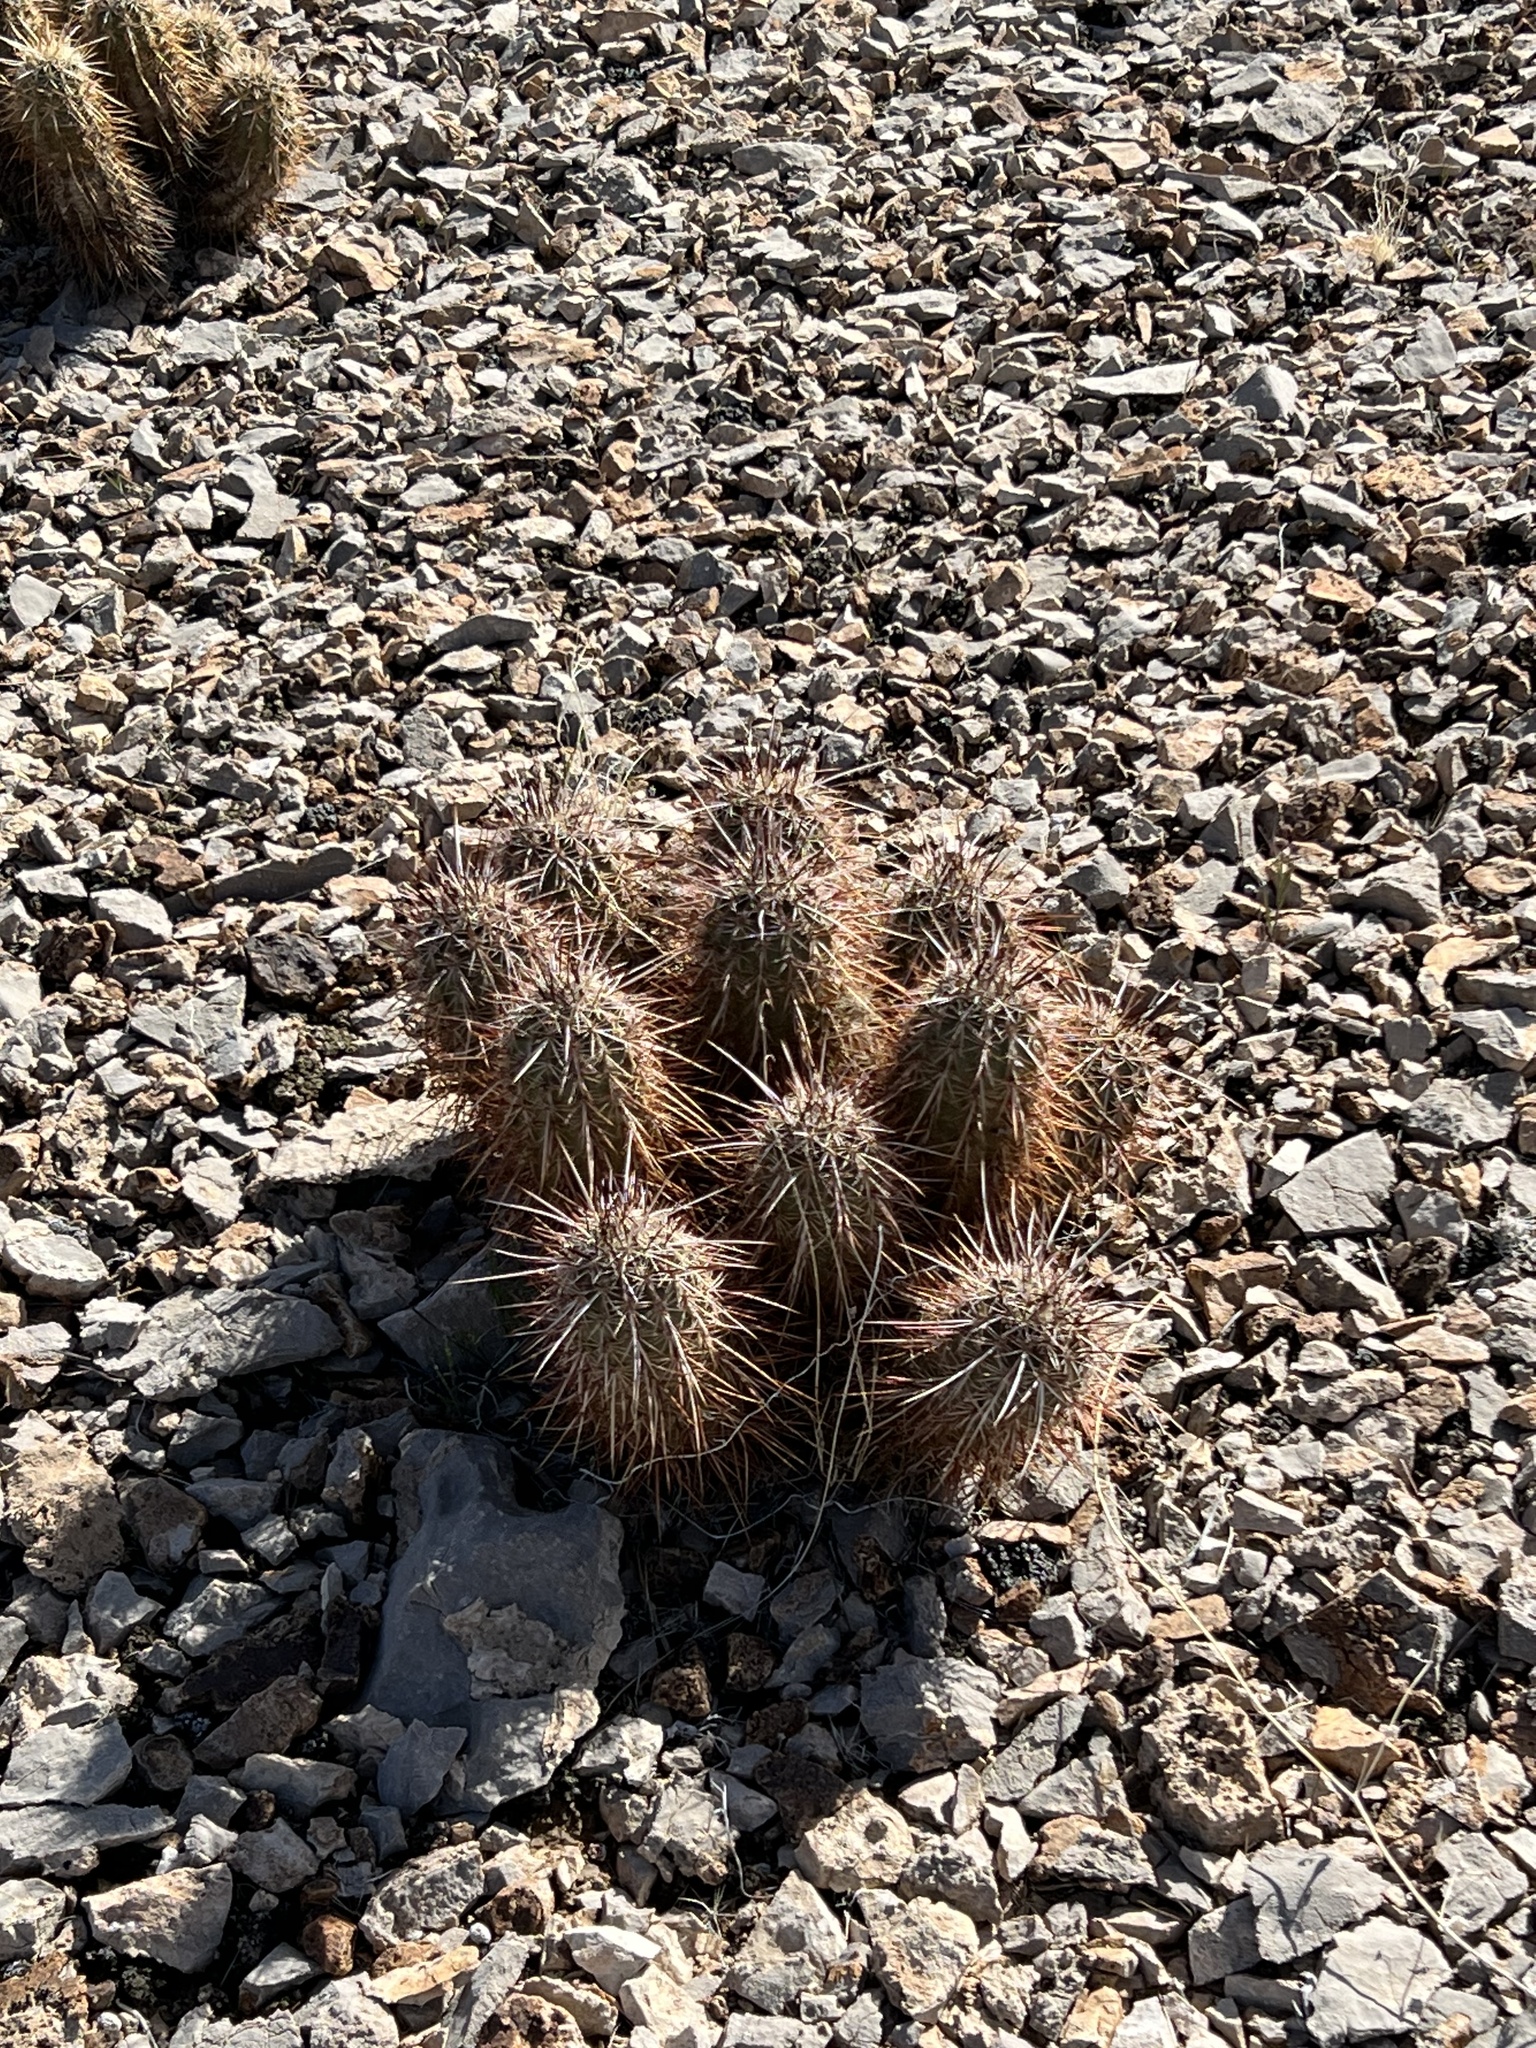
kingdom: Plantae
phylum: Tracheophyta
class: Magnoliopsida
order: Caryophyllales
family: Cactaceae
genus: Echinocereus
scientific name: Echinocereus engelmannii
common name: Engelmann's hedgehog cactus
